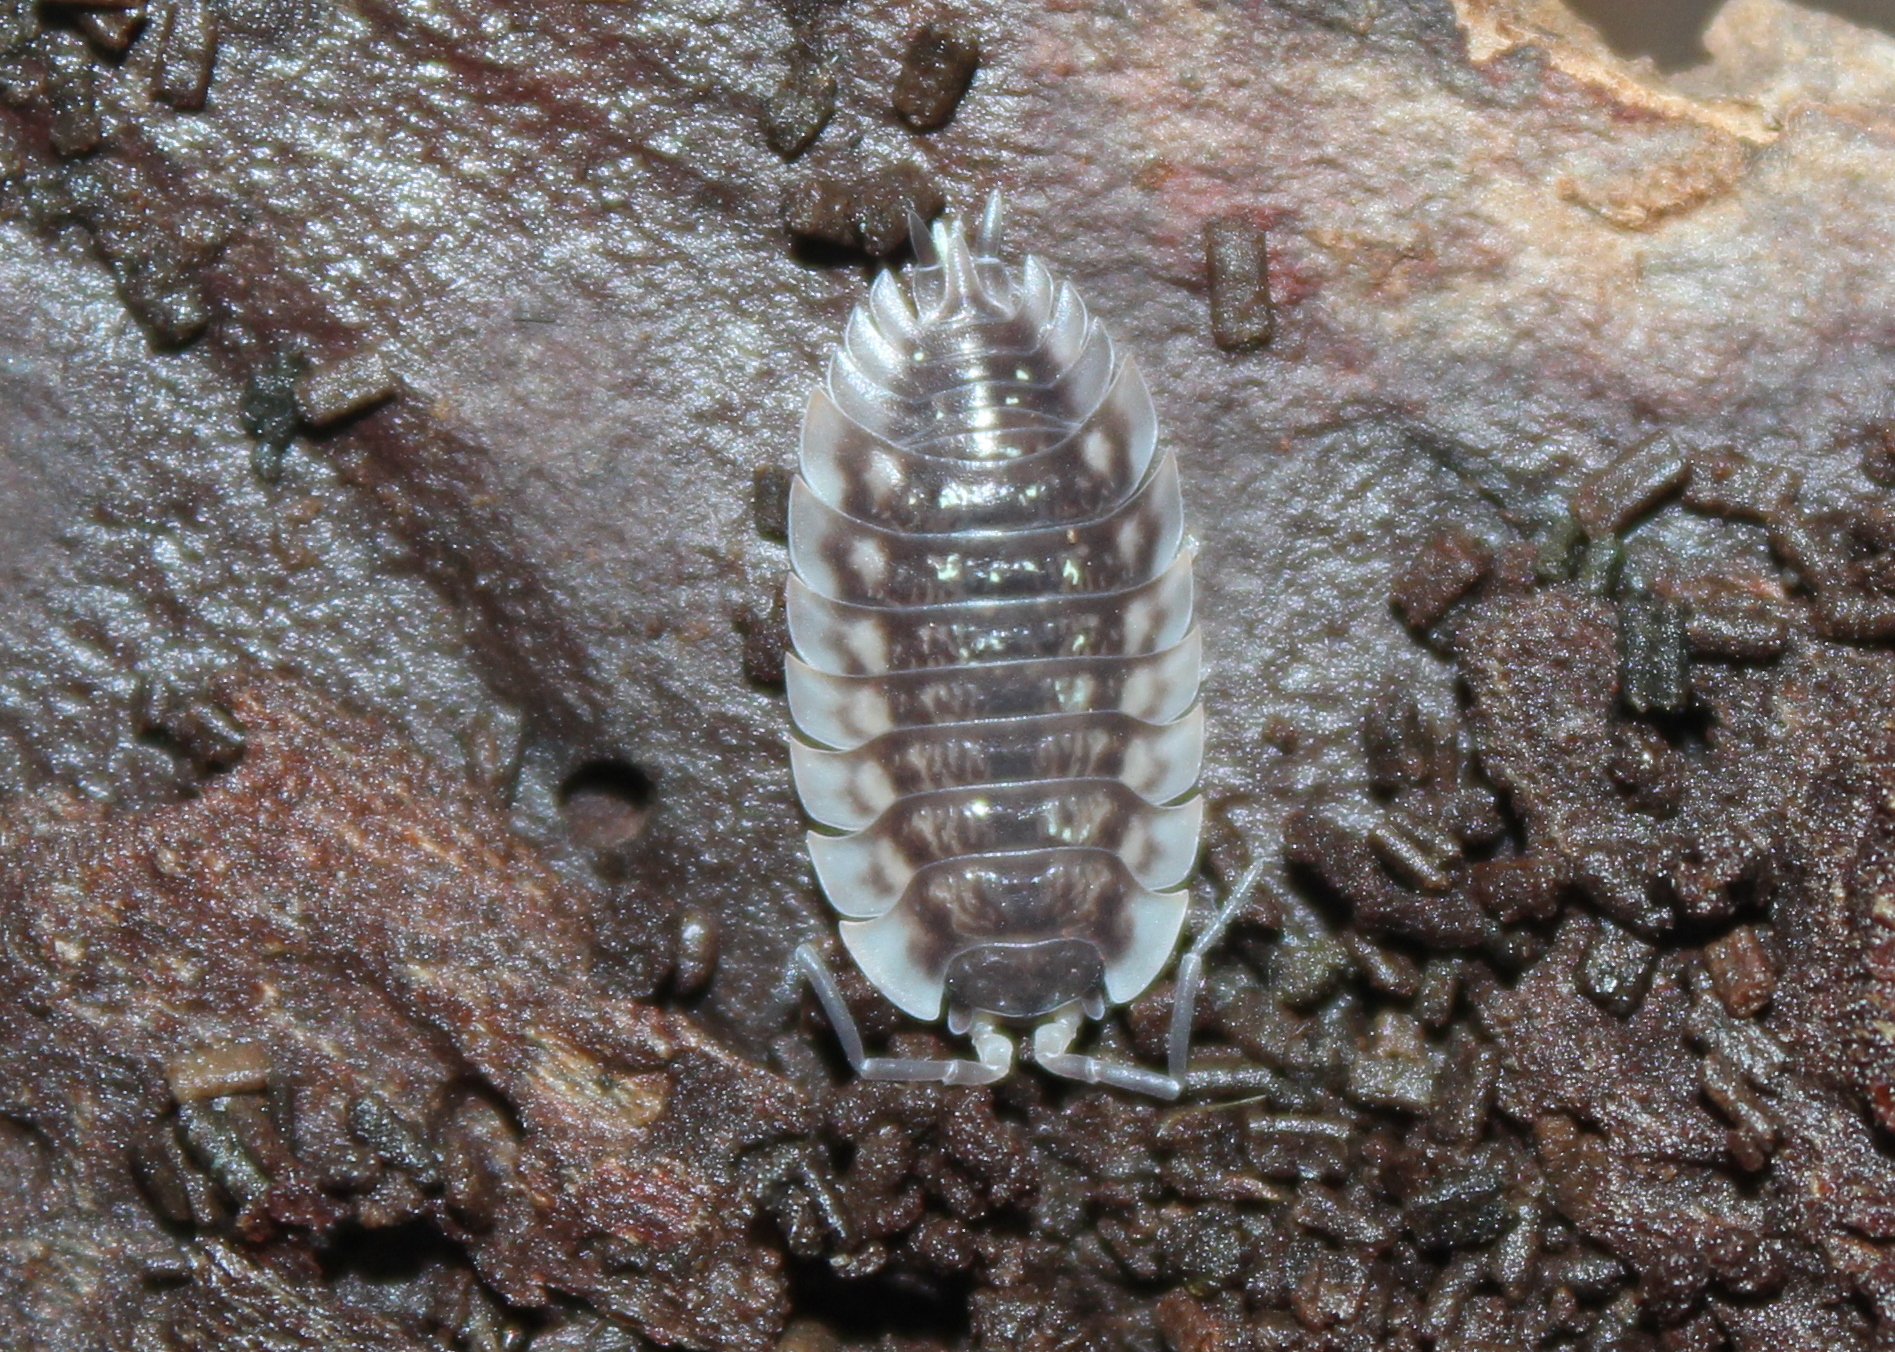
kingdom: Animalia
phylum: Arthropoda
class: Malacostraca
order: Isopoda
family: Oniscidae
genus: Oniscus
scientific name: Oniscus asellus
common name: Common shiny woodlouse
